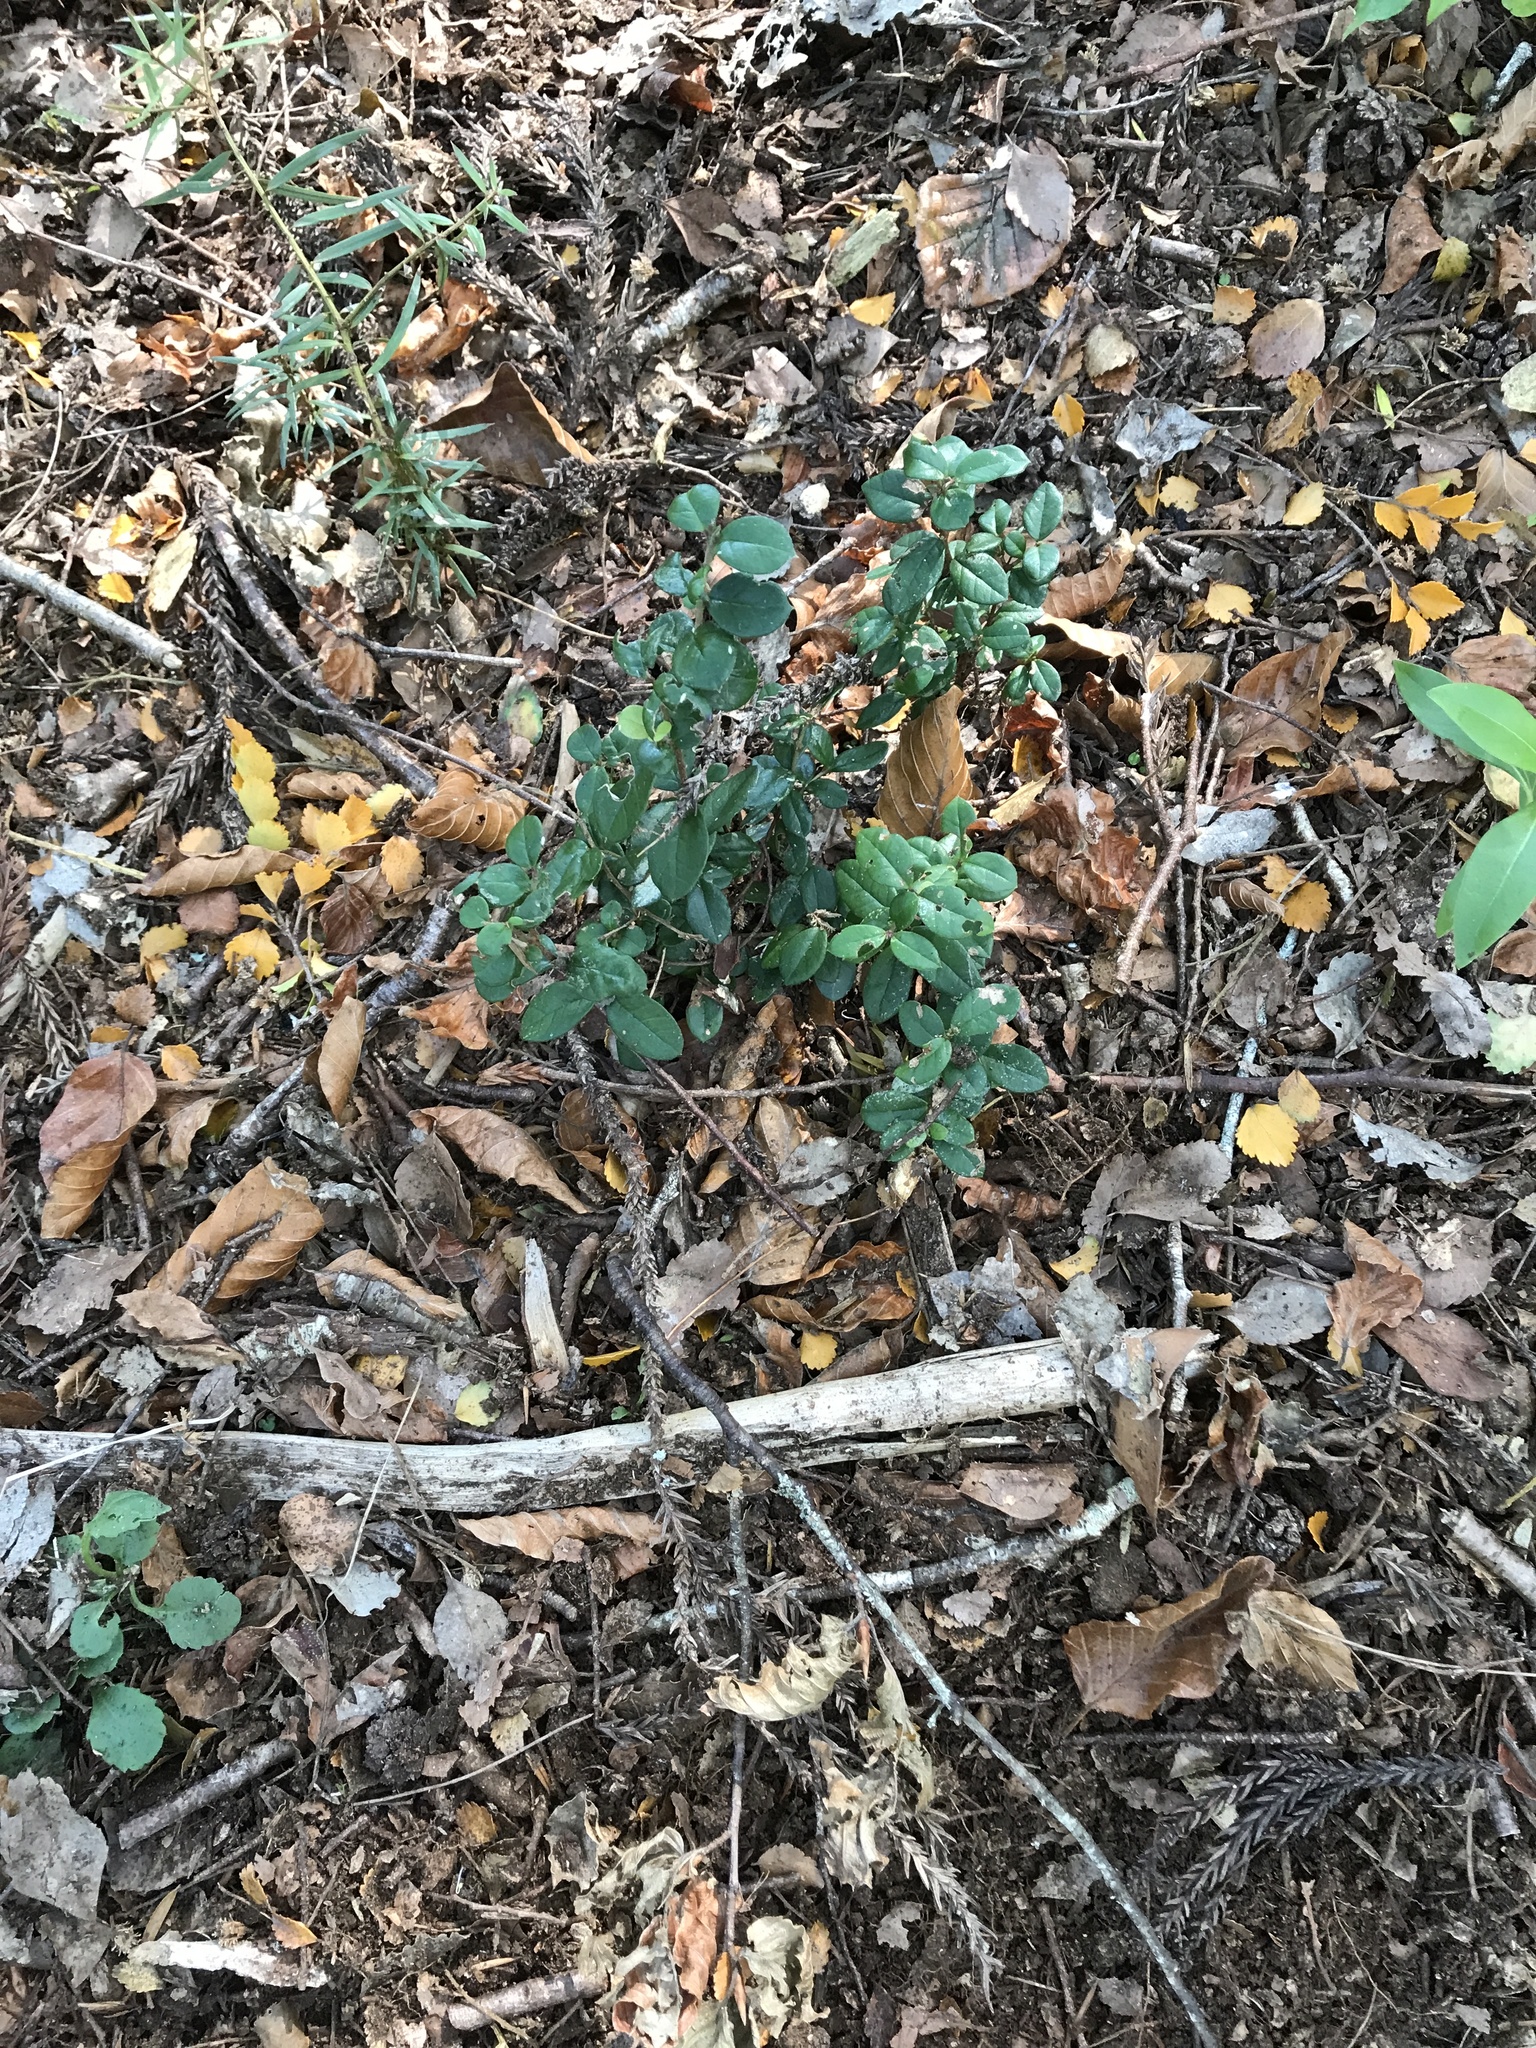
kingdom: Plantae
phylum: Tracheophyta
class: Magnoliopsida
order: Myrtales
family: Myrtaceae
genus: Luma
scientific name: Luma apiculata
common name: Chilean myrtle
